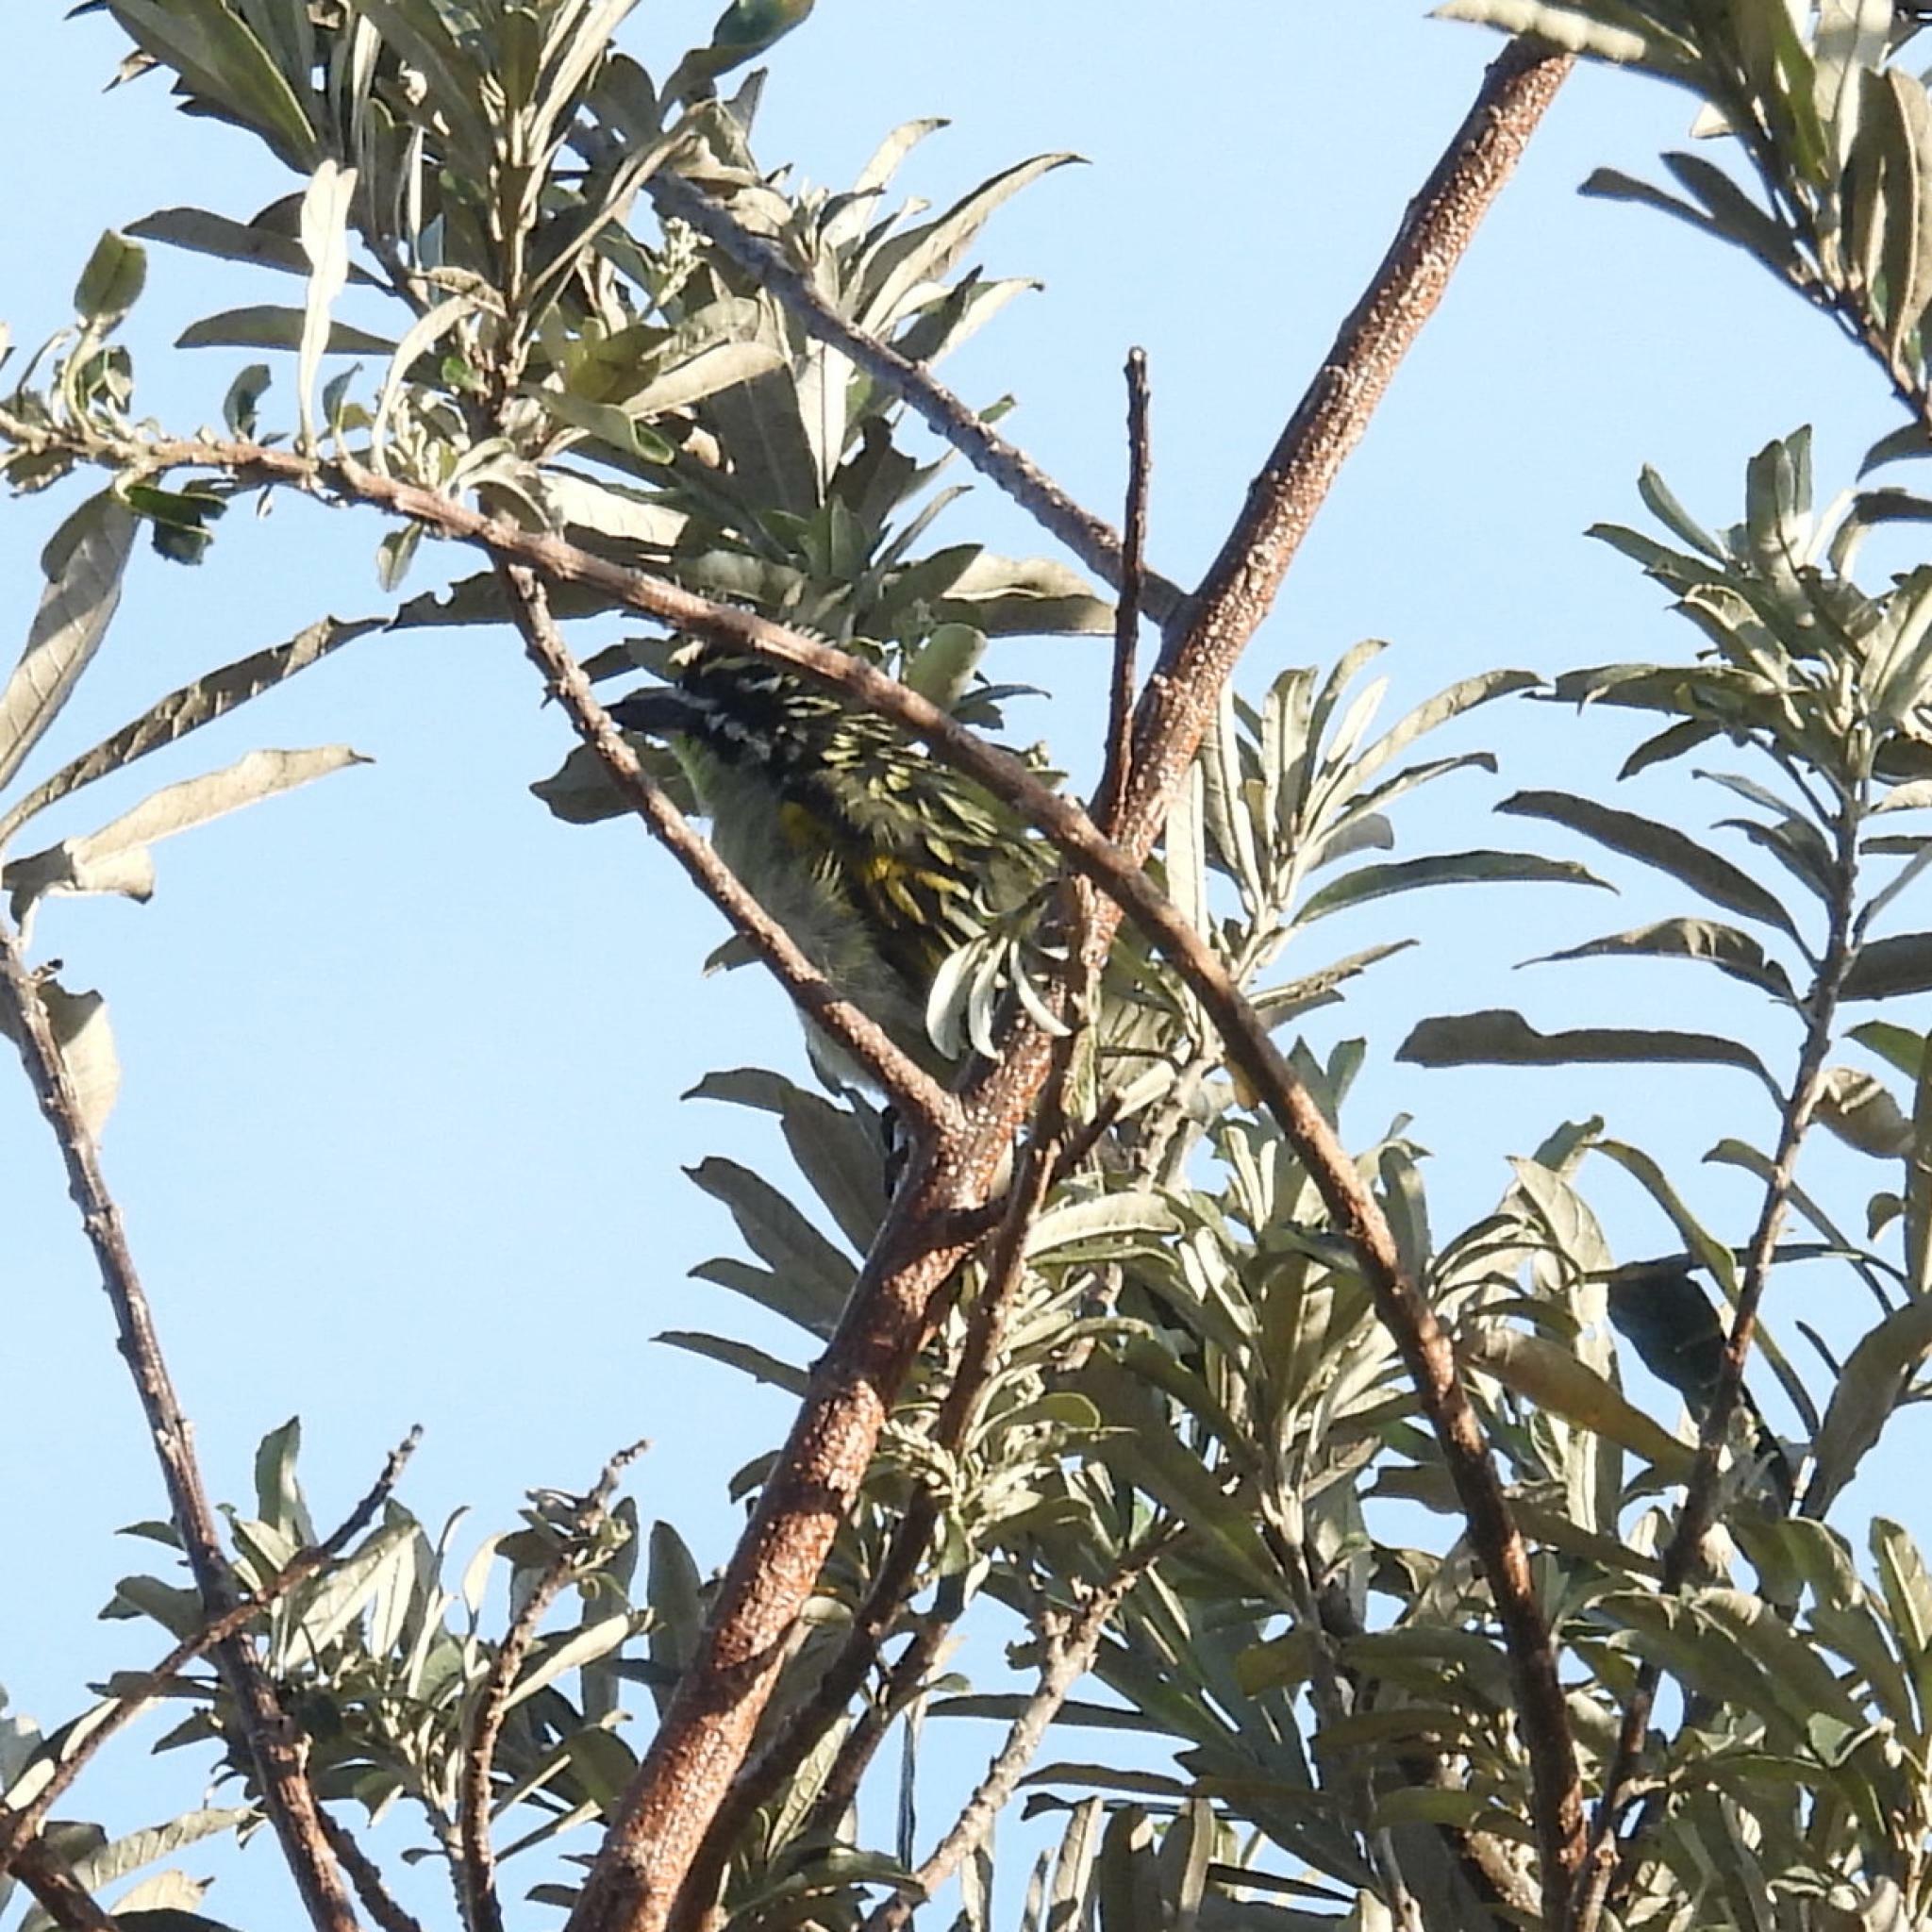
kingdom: Animalia
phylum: Chordata
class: Aves
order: Piciformes
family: Lybiidae
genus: Pogoniulus
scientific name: Pogoniulus pusillus
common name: Red-fronted tinkerbird
